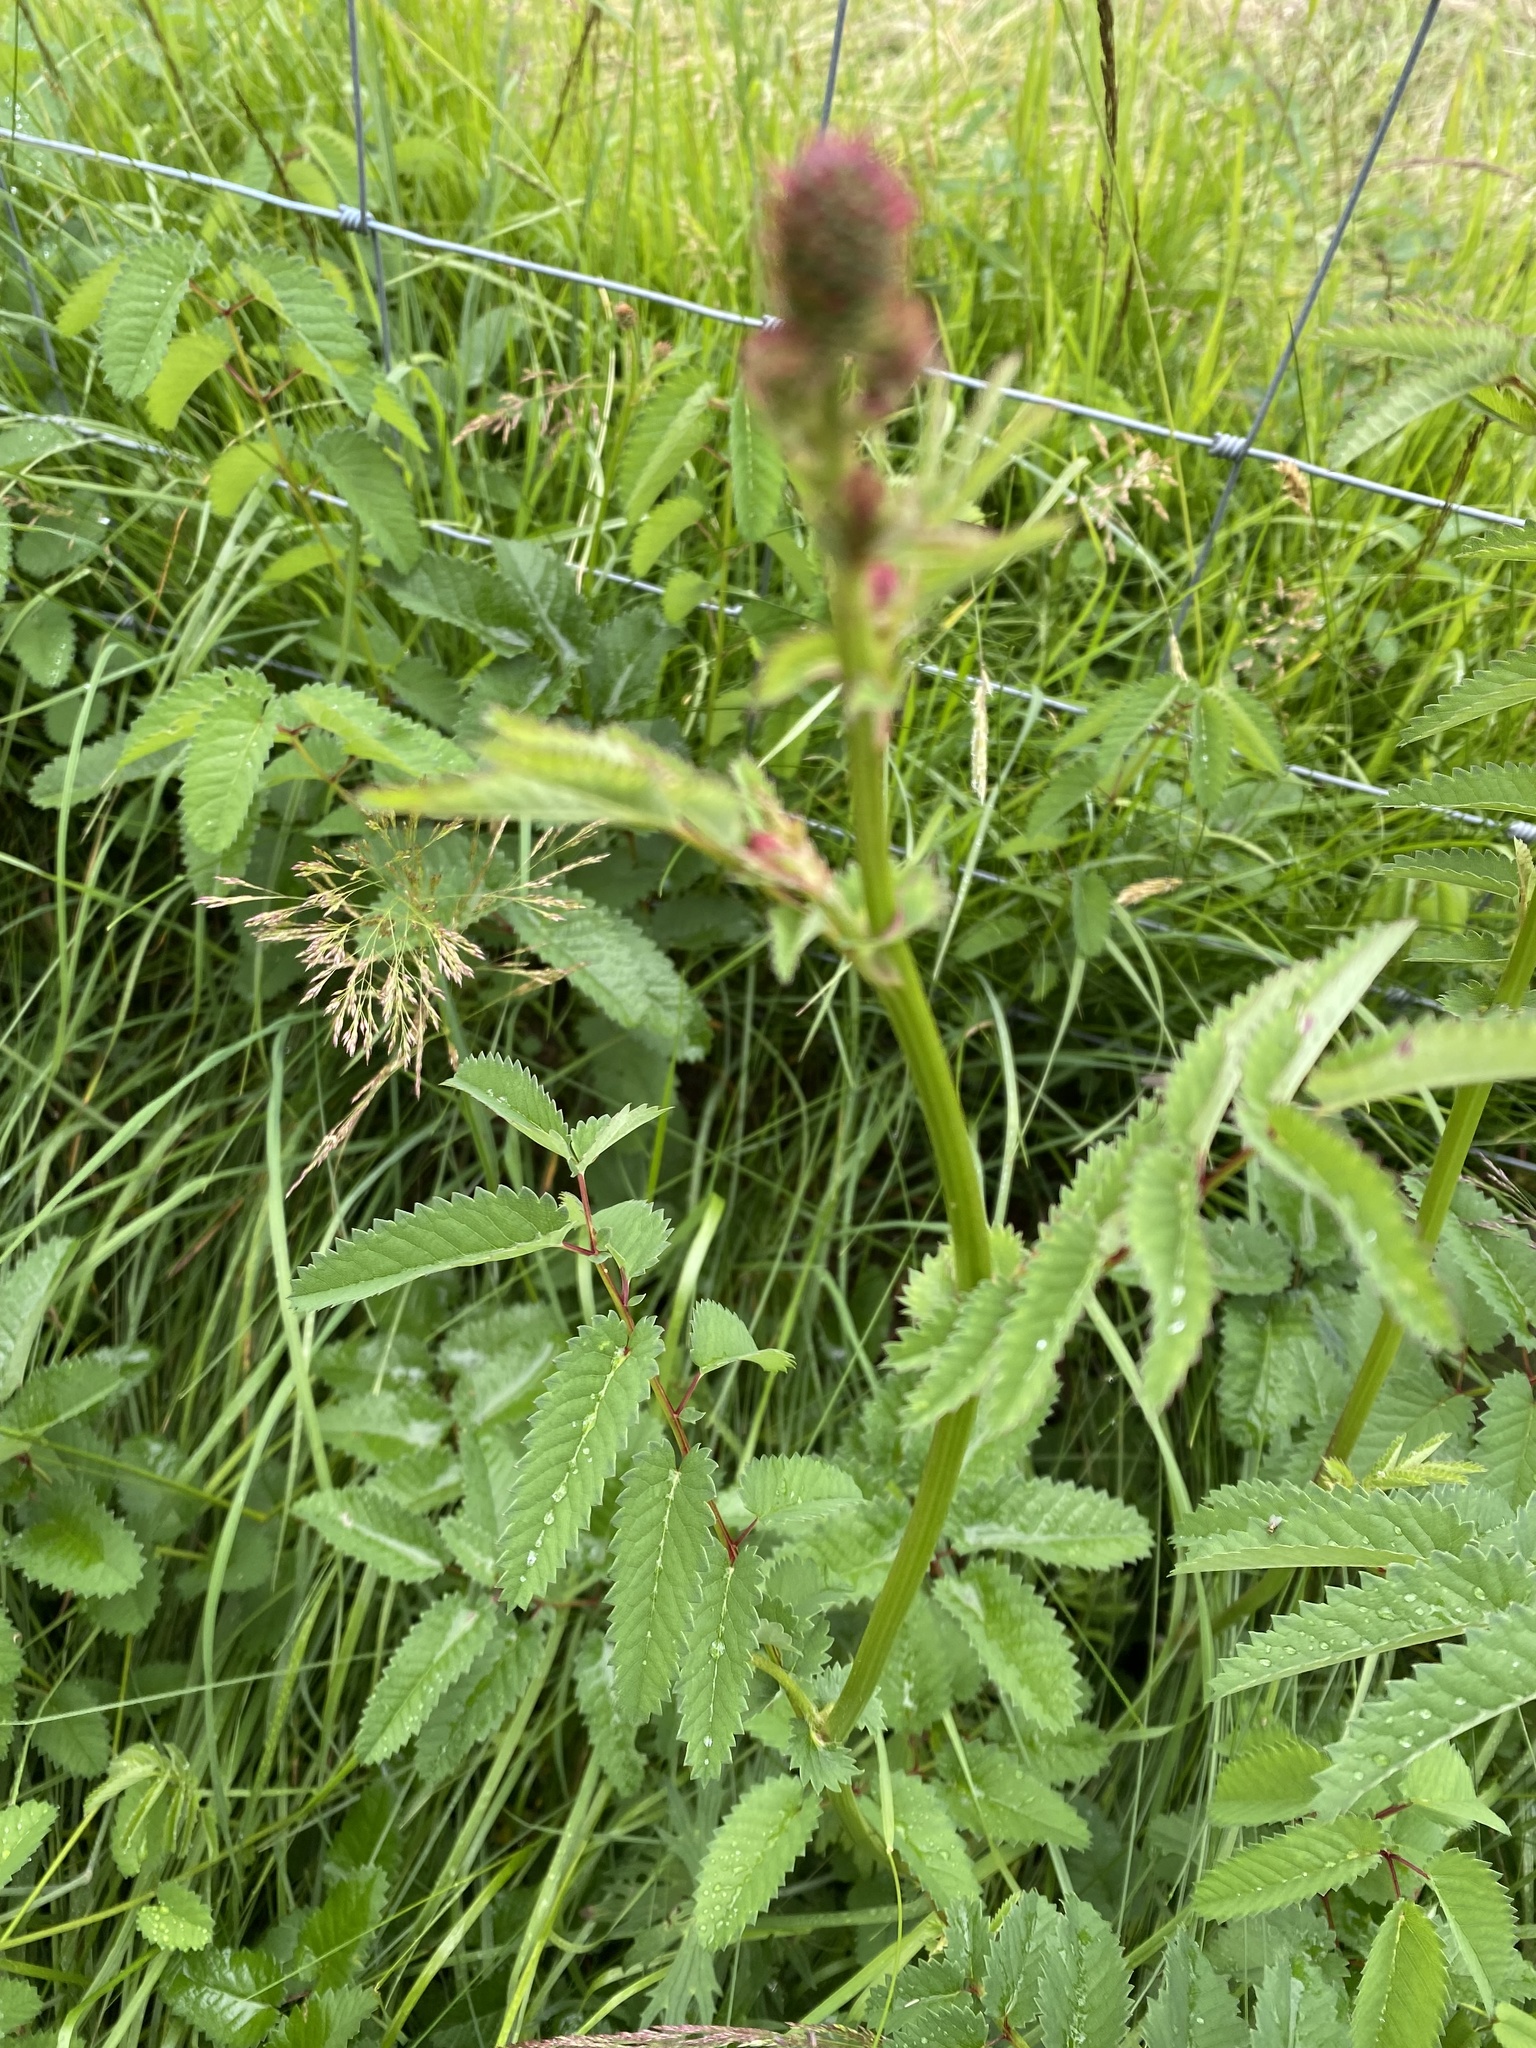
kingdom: Plantae
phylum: Tracheophyta
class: Magnoliopsida
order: Rosales
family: Rosaceae
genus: Sanguisorba
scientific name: Sanguisorba officinalis
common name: Great burnet
